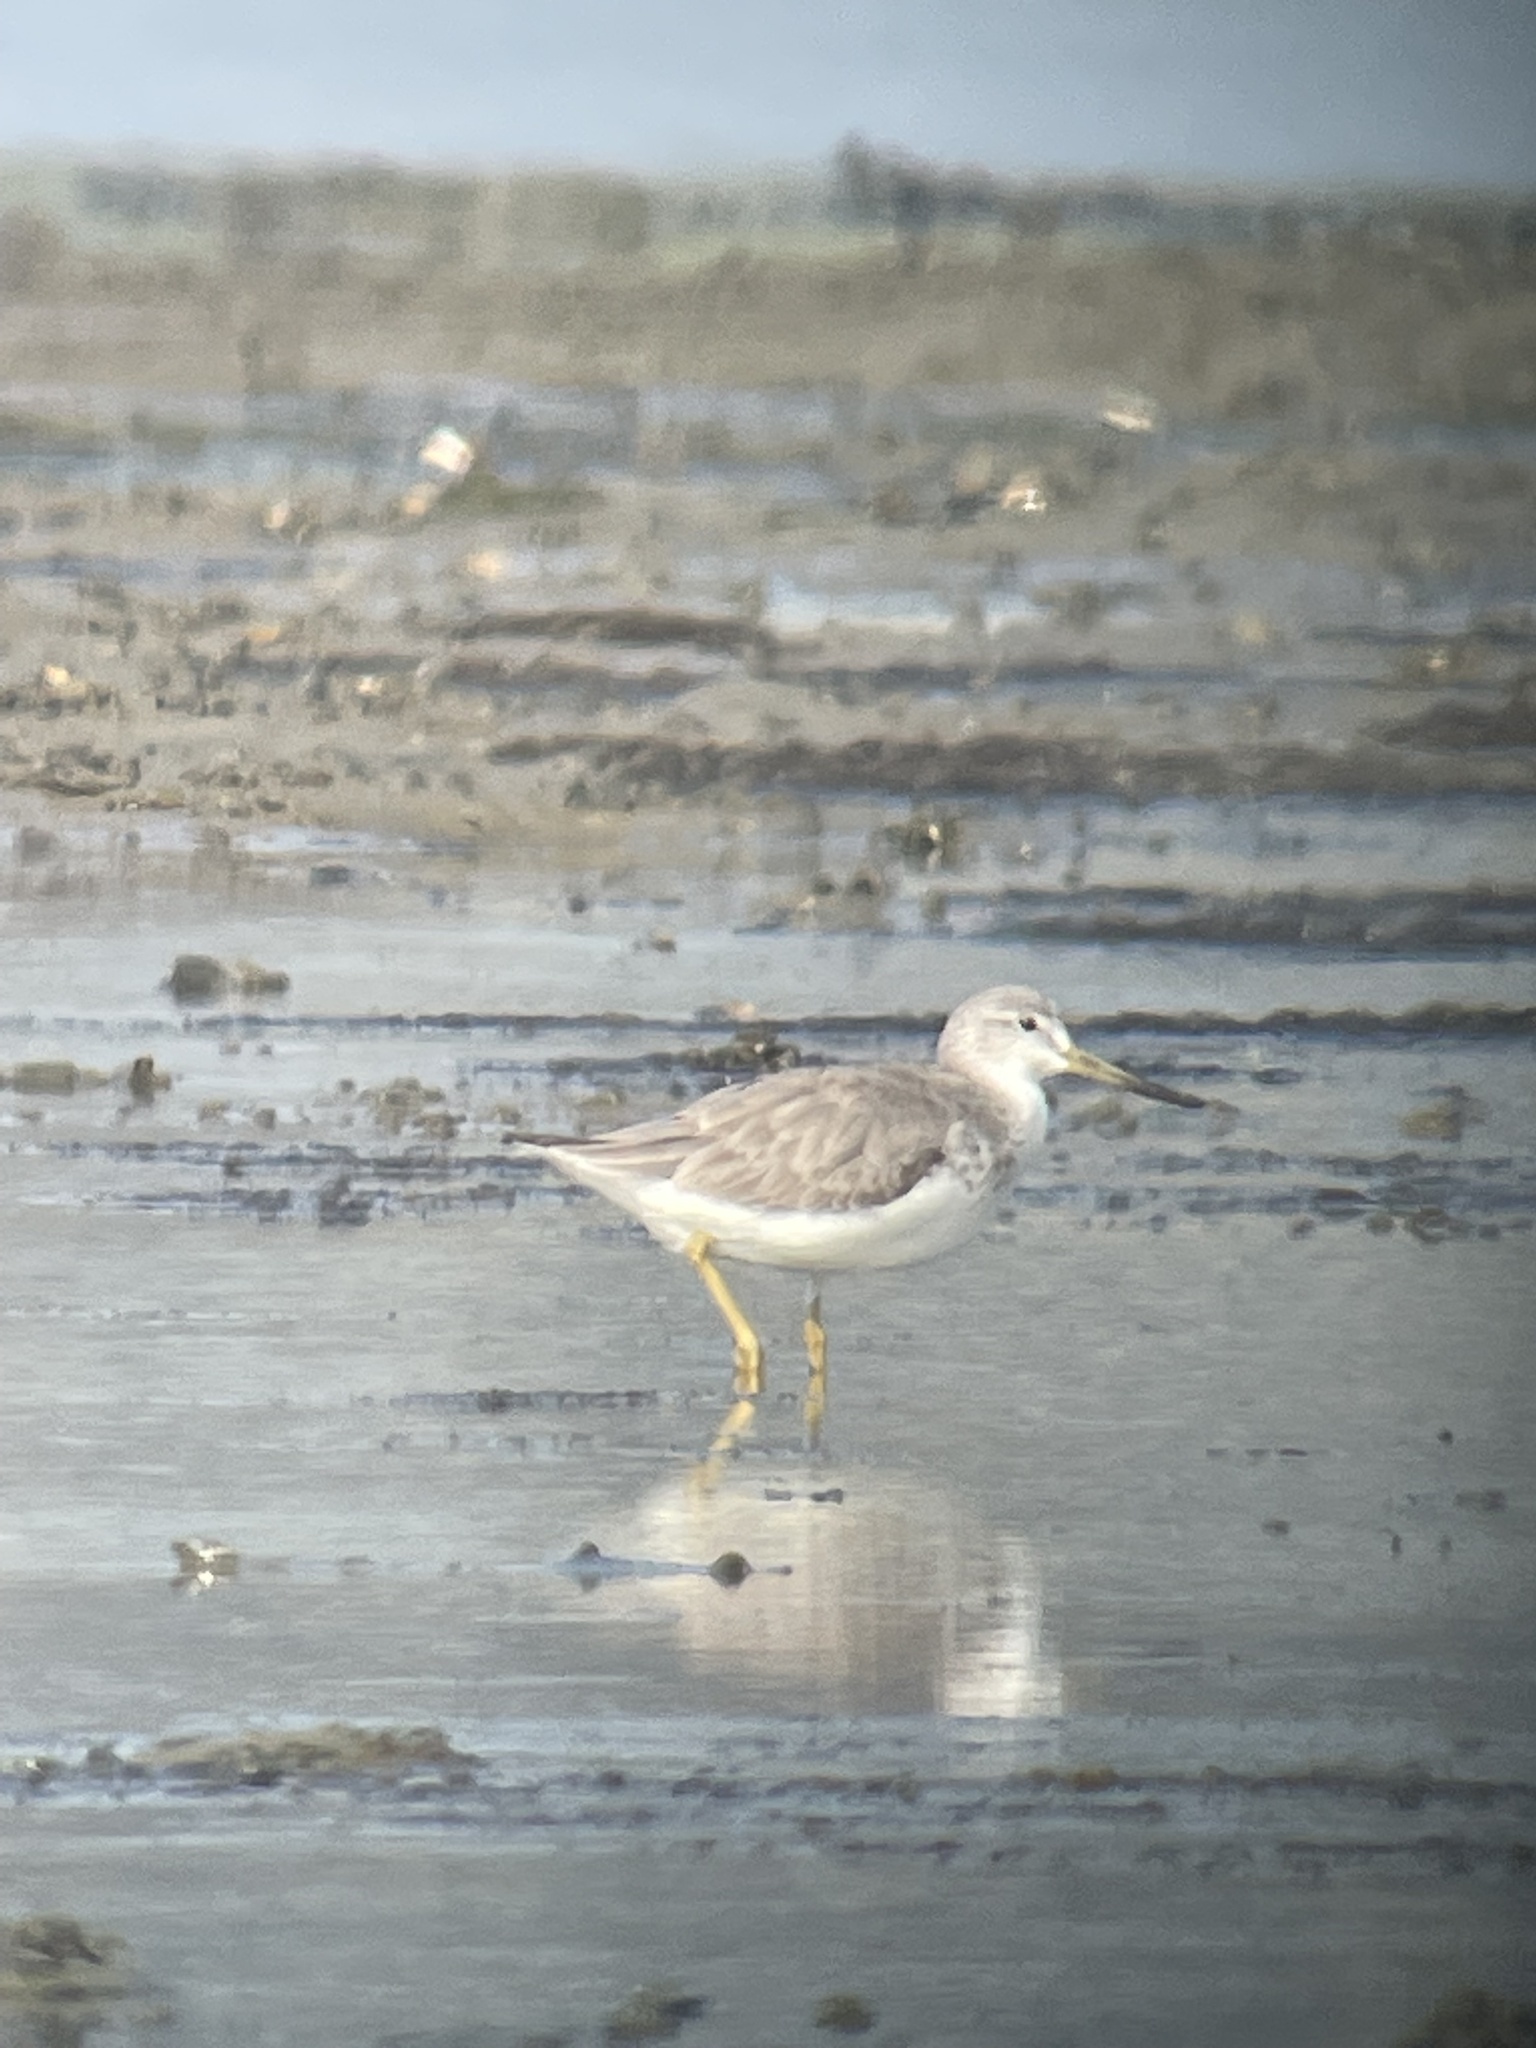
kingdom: Animalia
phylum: Chordata
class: Aves
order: Charadriiformes
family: Scolopacidae
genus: Tringa
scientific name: Tringa guttifer
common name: Nordmann's greenshank
